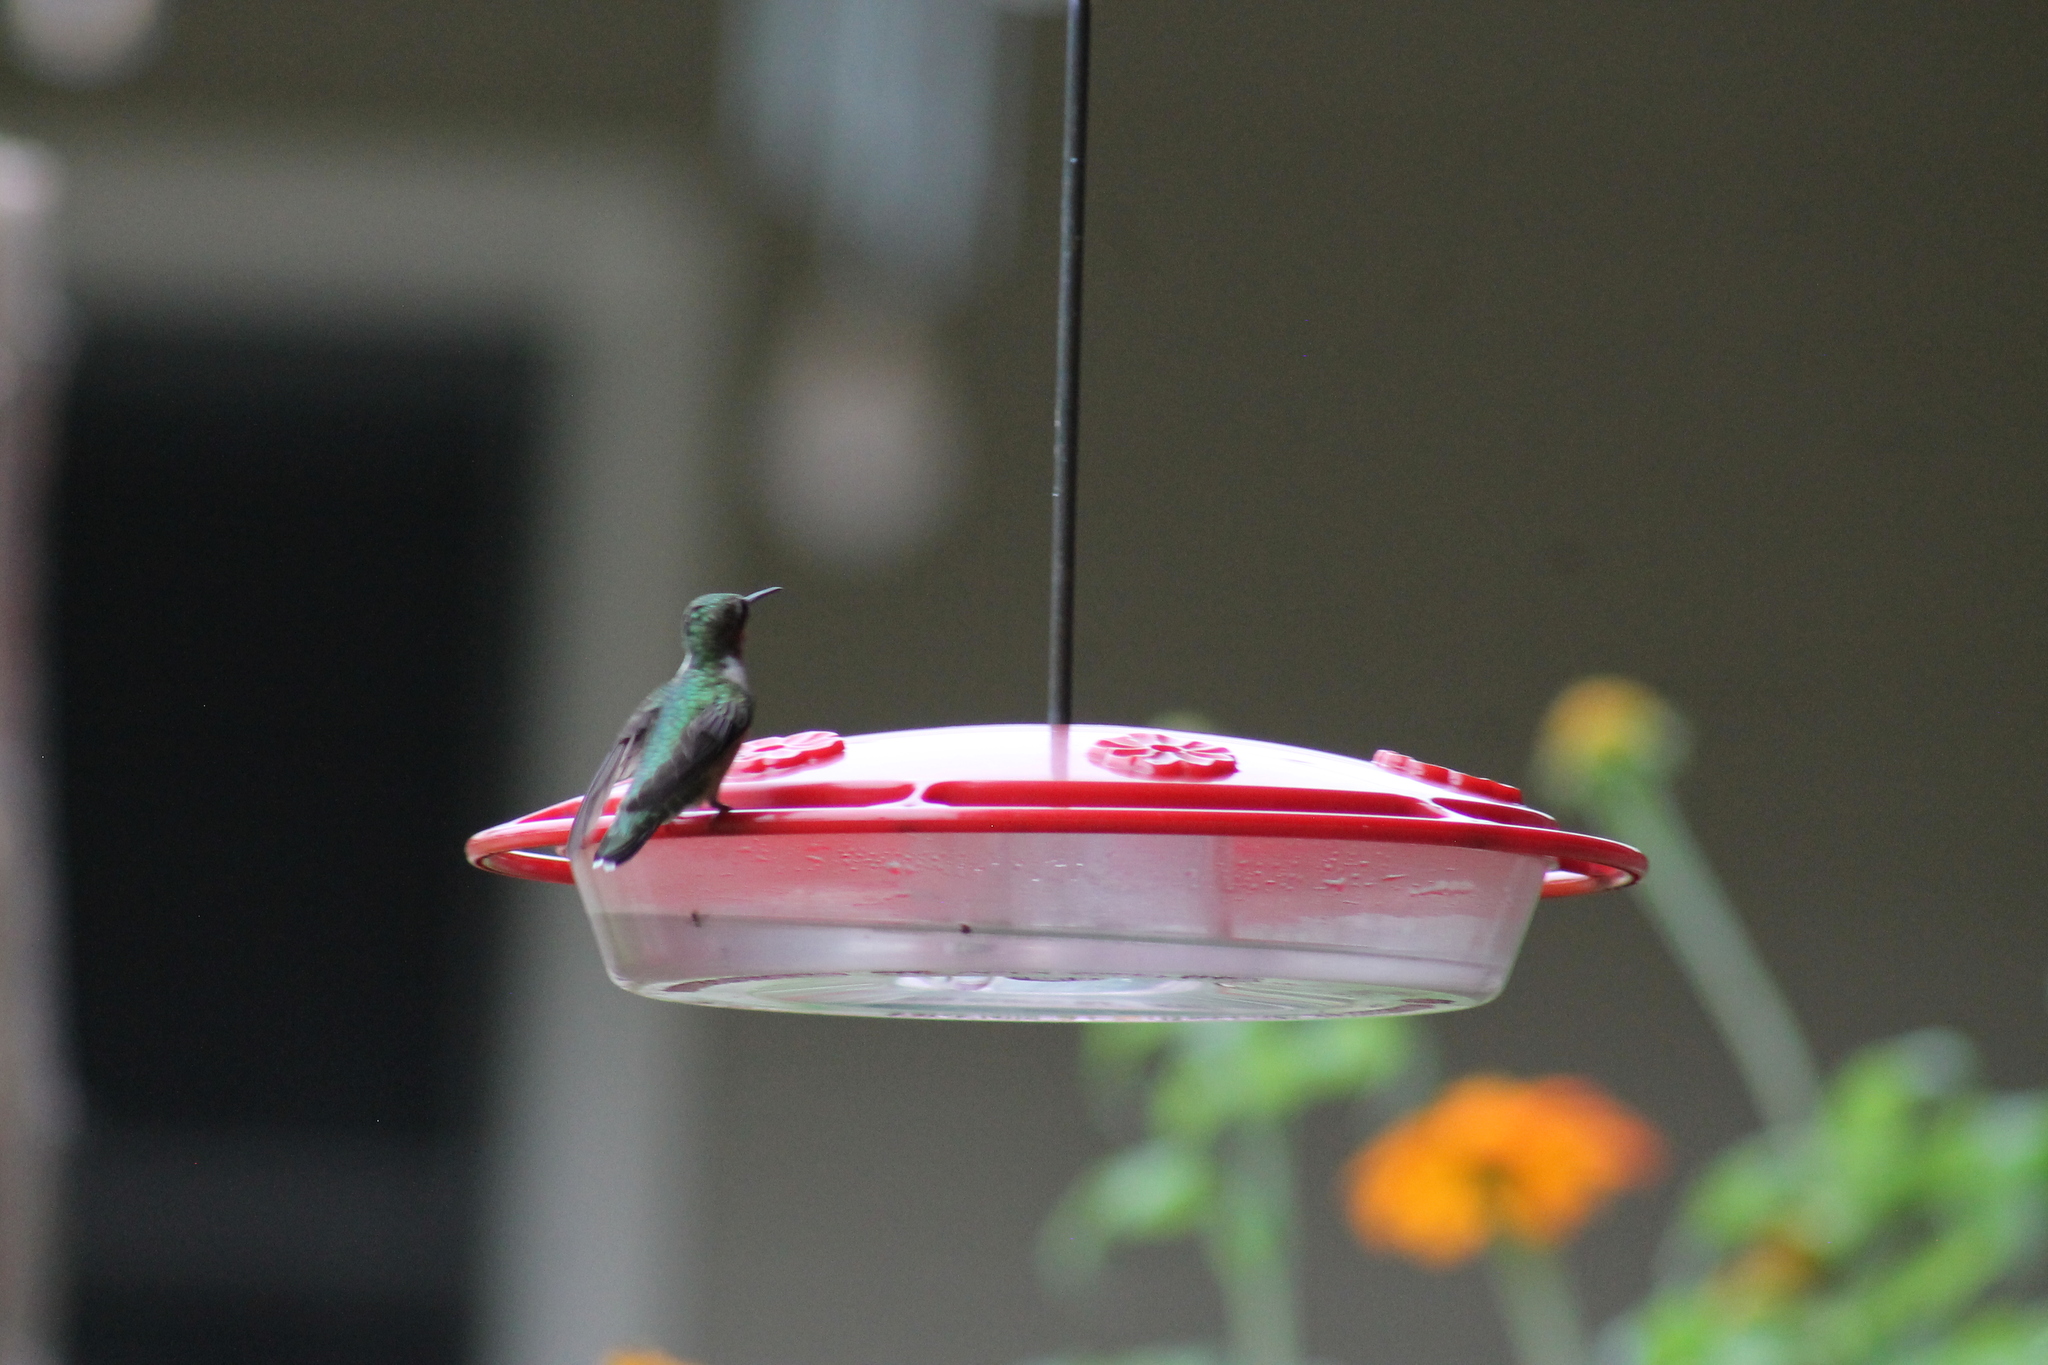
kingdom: Animalia
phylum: Chordata
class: Aves
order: Apodiformes
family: Trochilidae
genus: Archilochus
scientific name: Archilochus colubris
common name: Ruby-throated hummingbird
